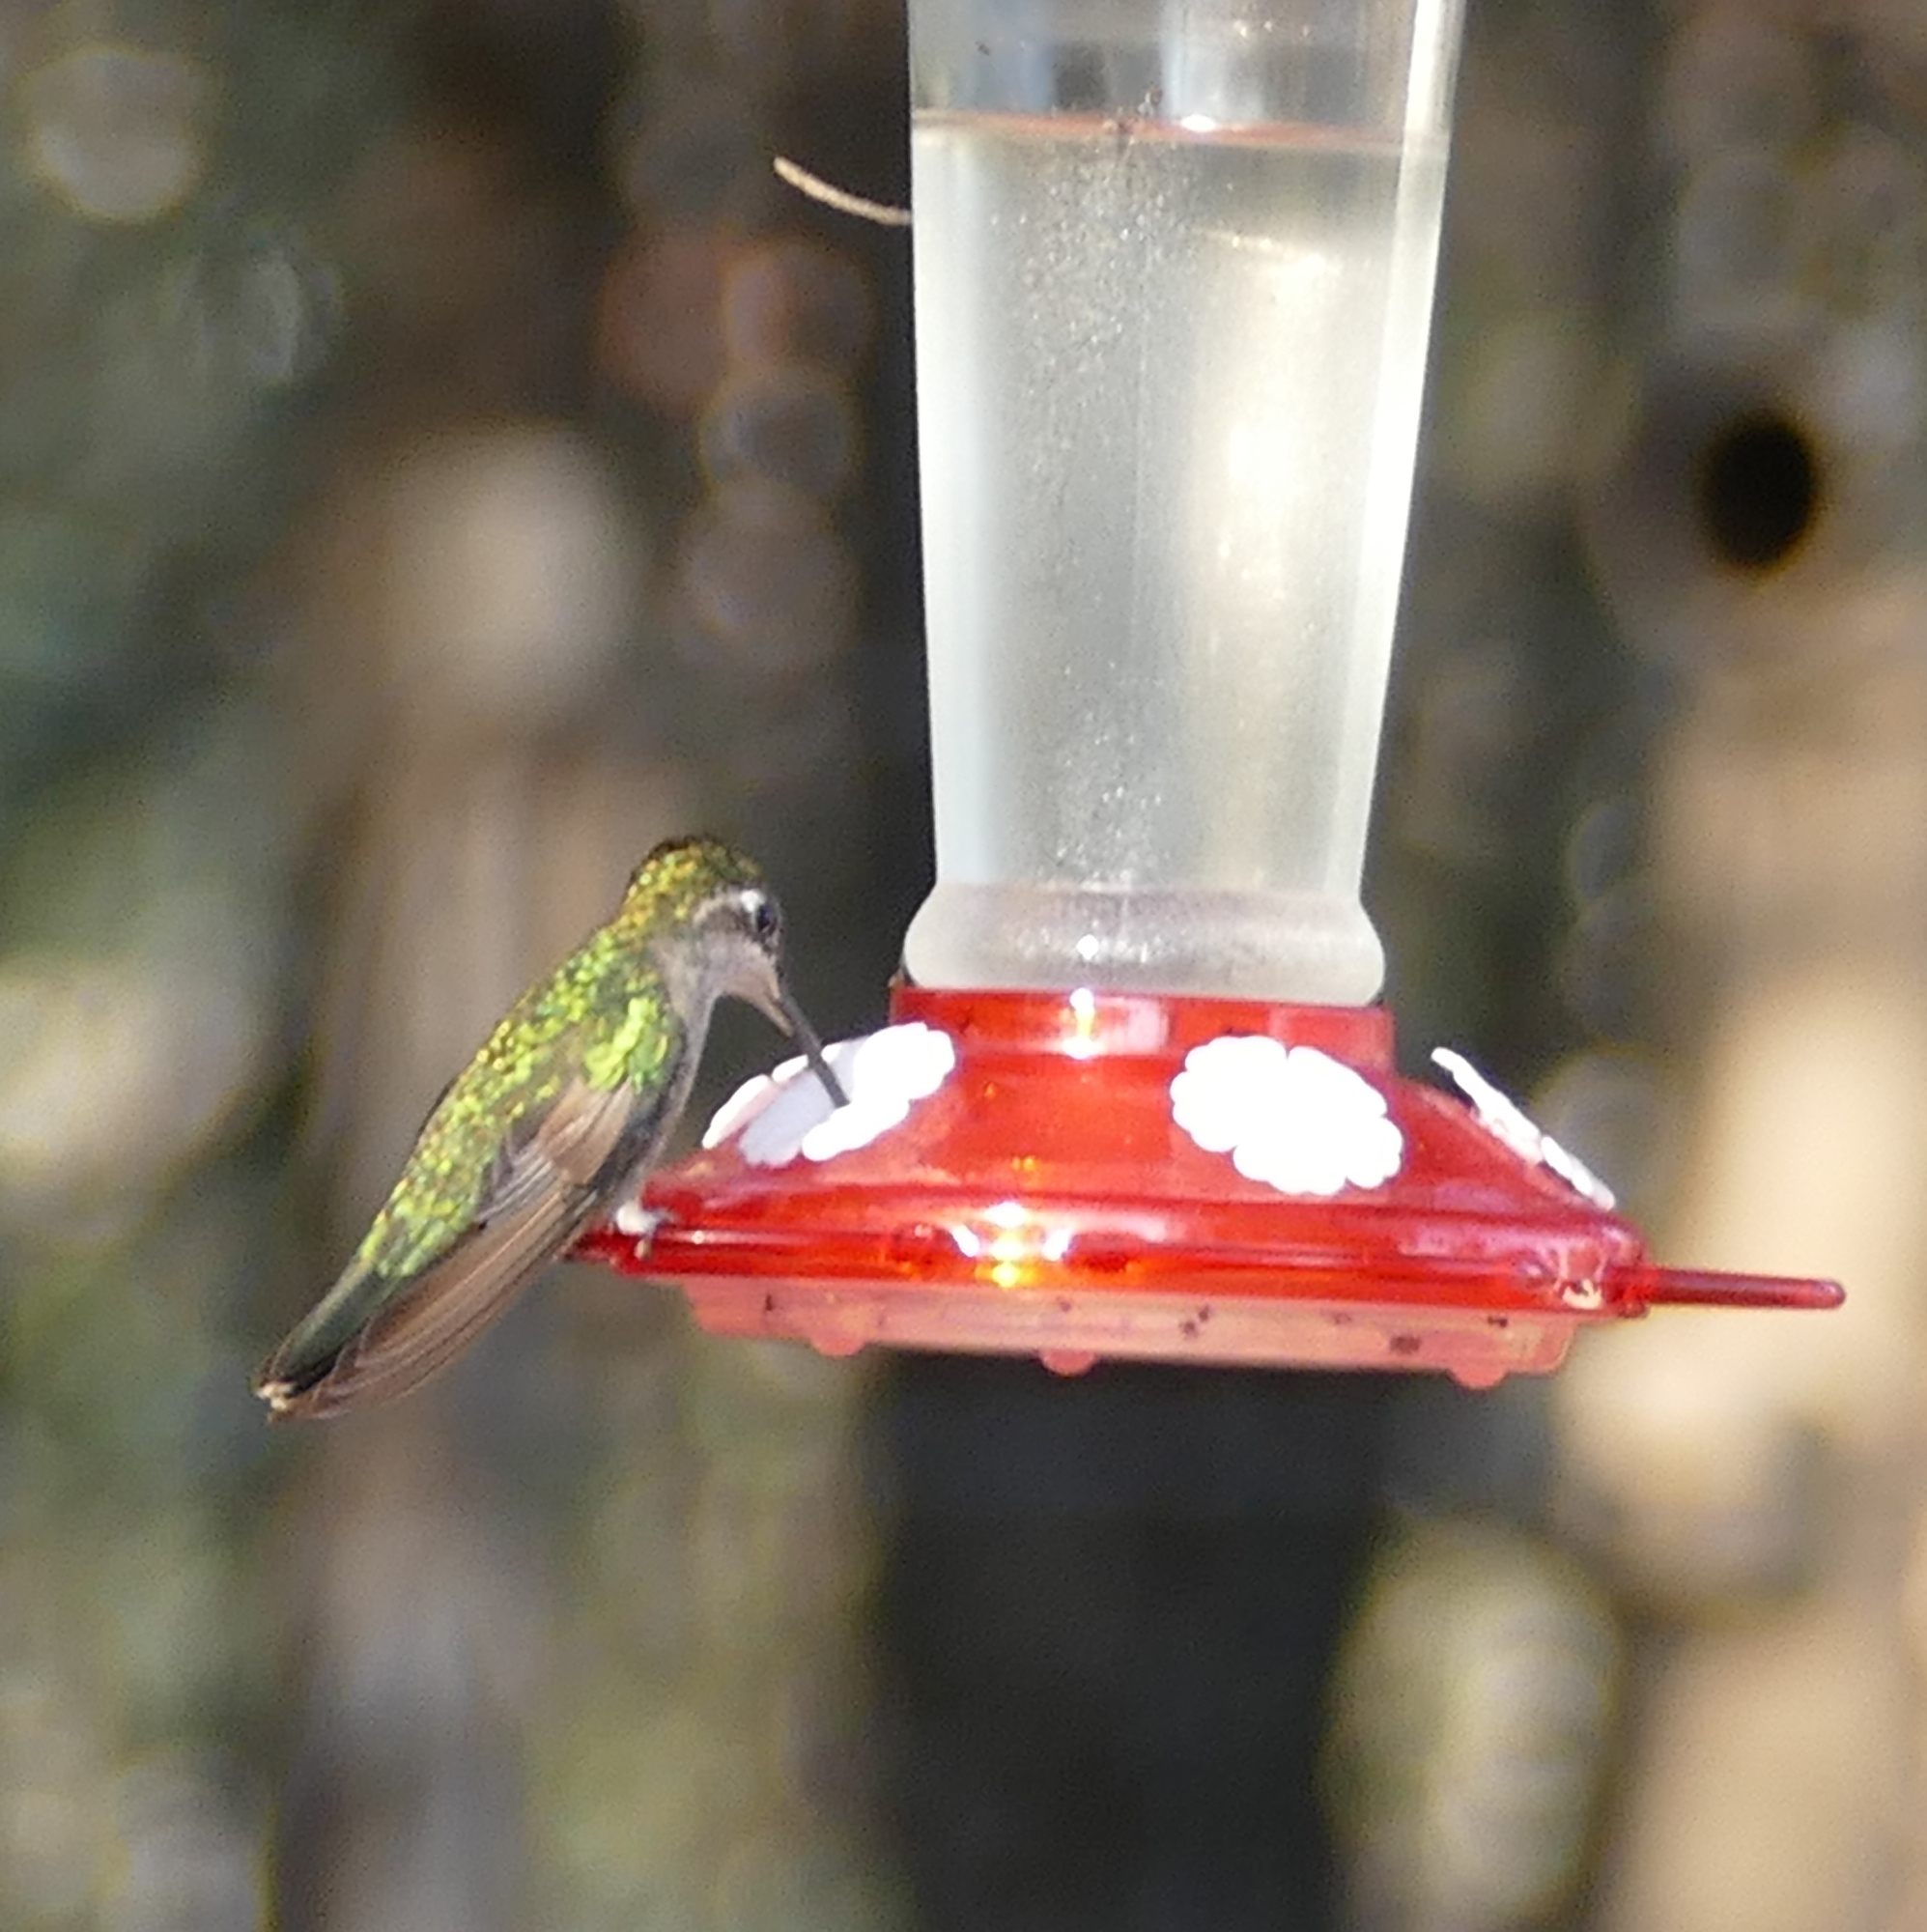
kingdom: Animalia
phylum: Chordata
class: Aves
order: Apodiformes
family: Trochilidae
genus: Eugenes
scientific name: Eugenes fulgens
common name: Magnificent hummingbird
